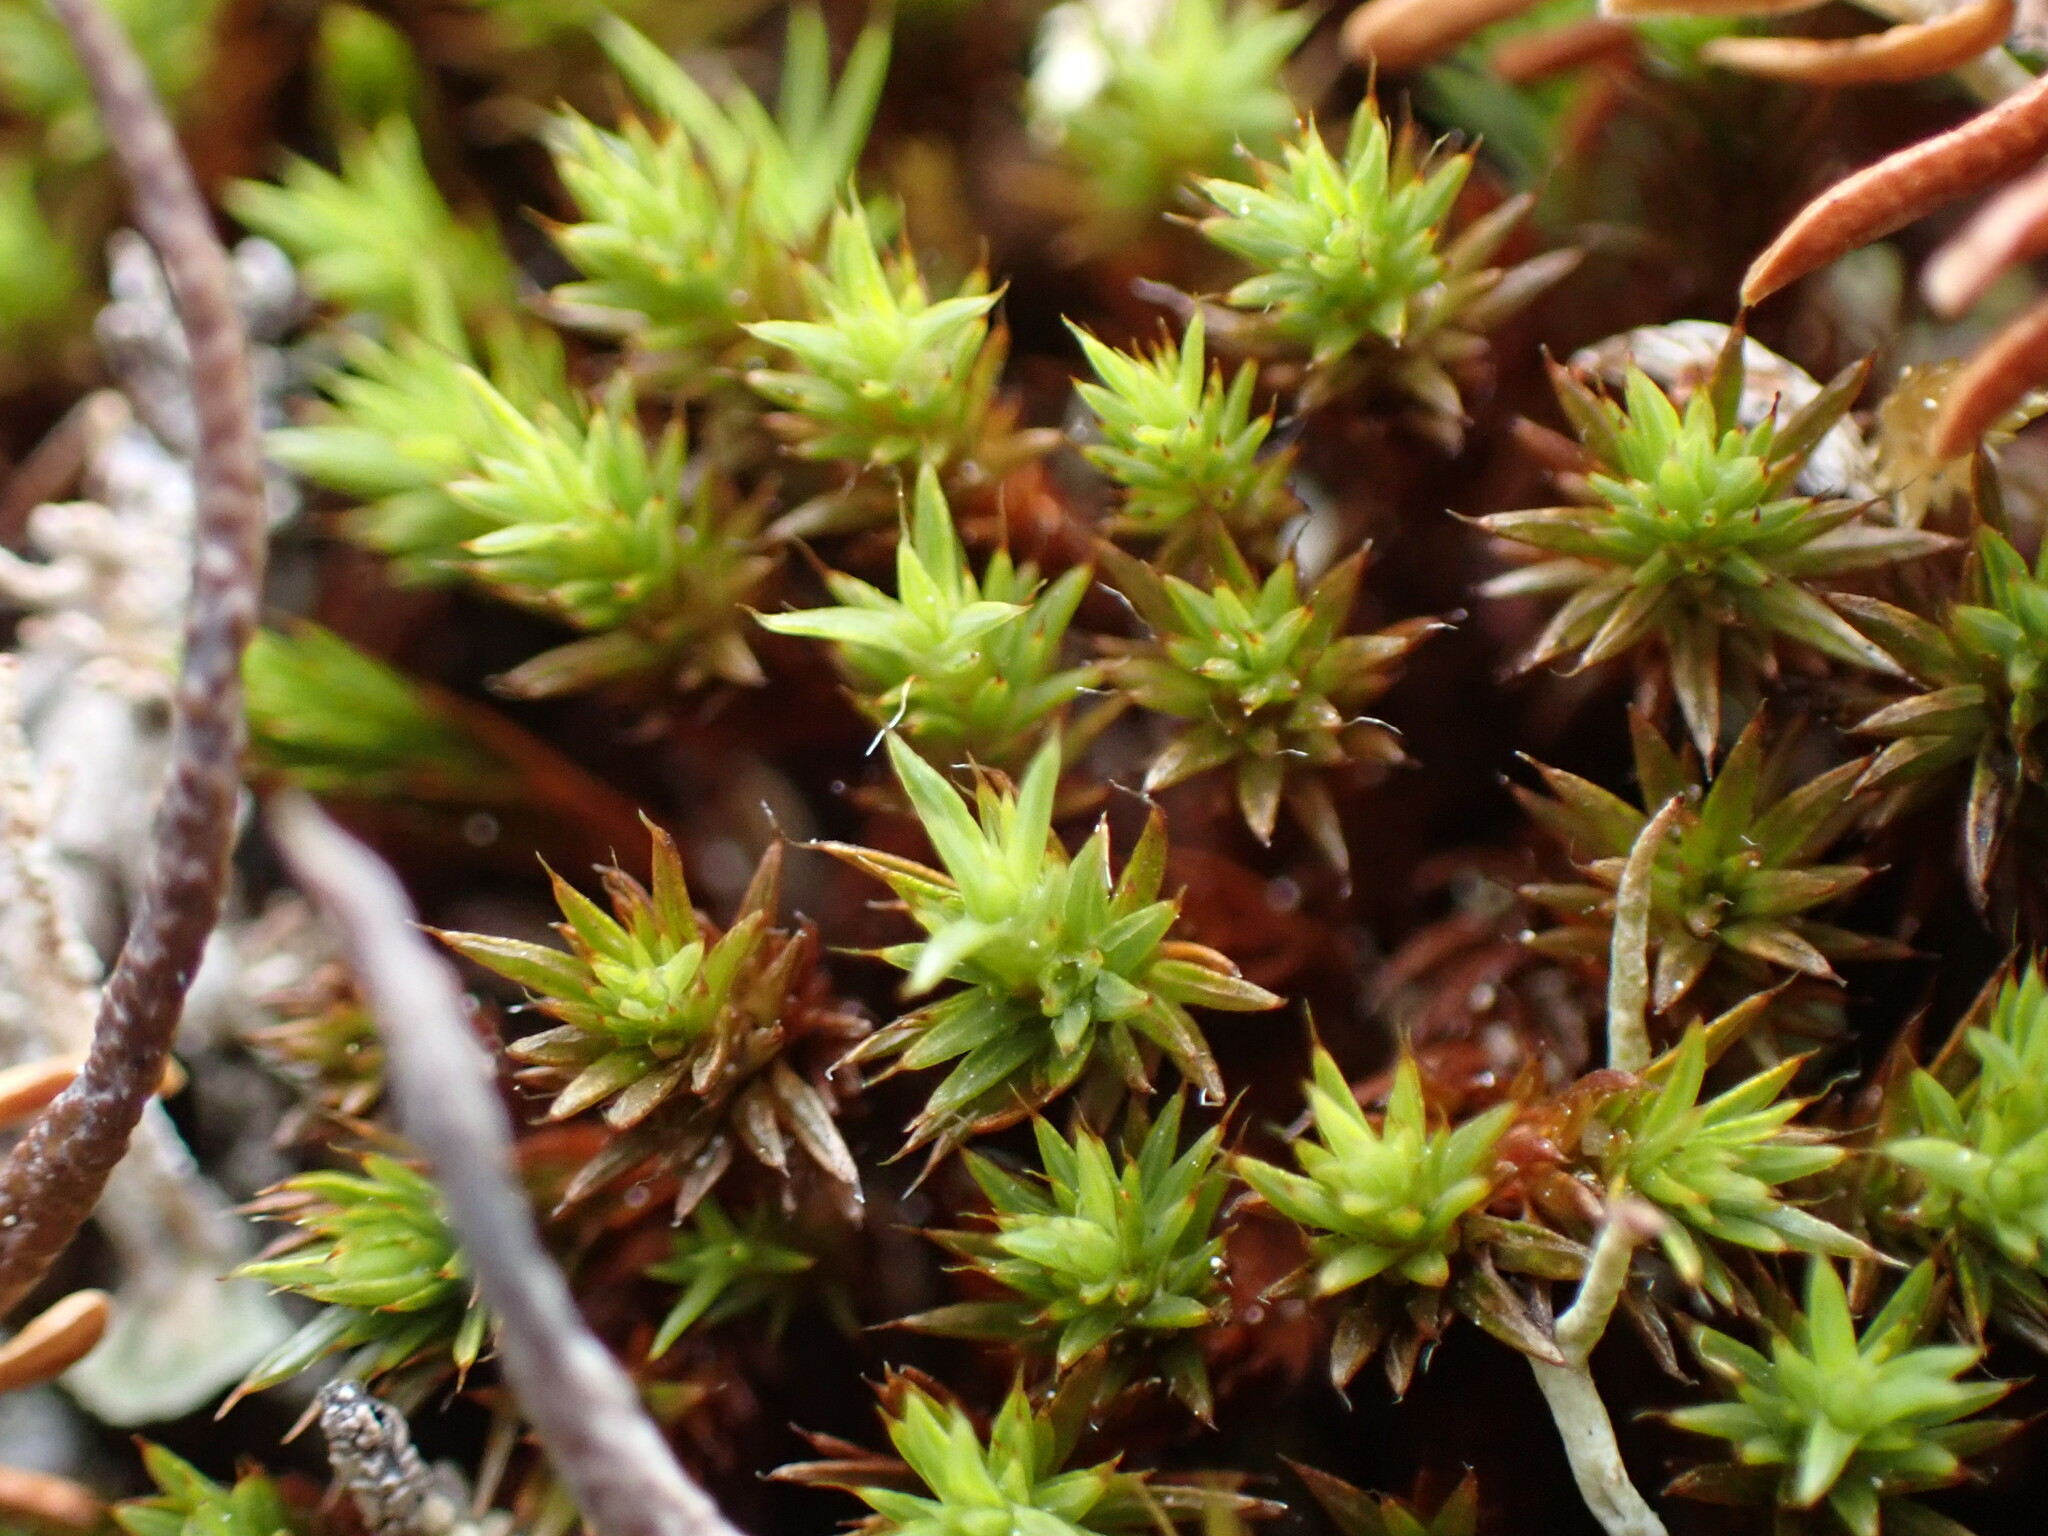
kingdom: Plantae
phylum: Bryophyta
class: Polytrichopsida
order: Polytrichales
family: Polytrichaceae
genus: Polytrichum
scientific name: Polytrichum piliferum
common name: Bristly haircap
